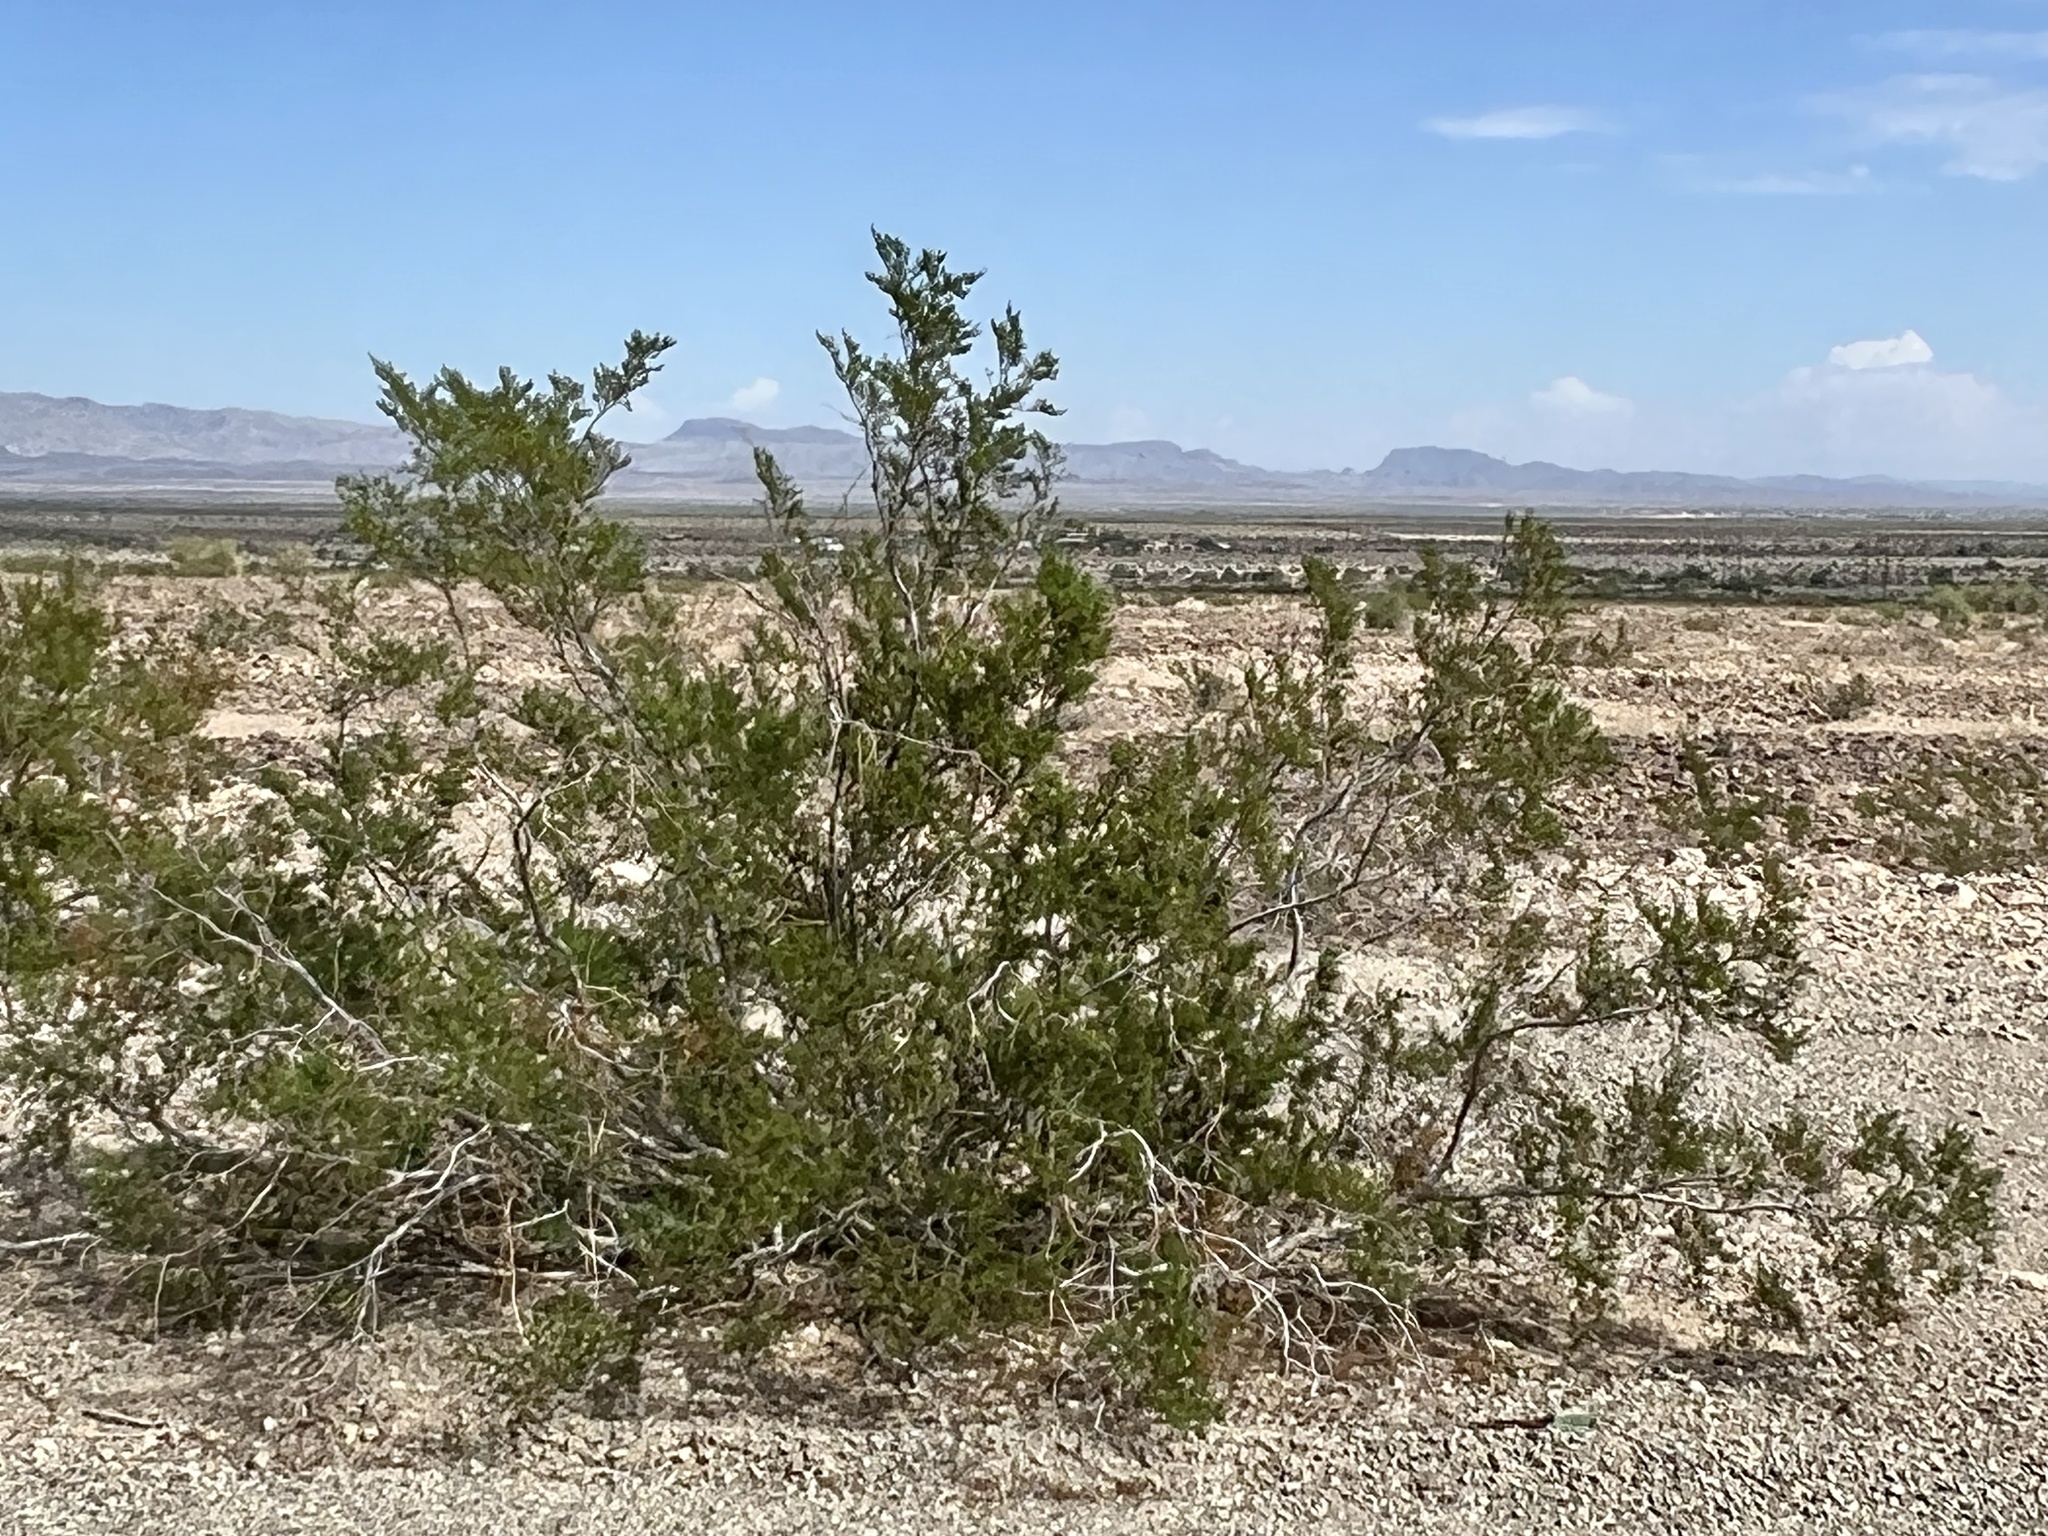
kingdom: Plantae
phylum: Tracheophyta
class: Magnoliopsida
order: Zygophyllales
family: Zygophyllaceae
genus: Larrea
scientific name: Larrea tridentata
